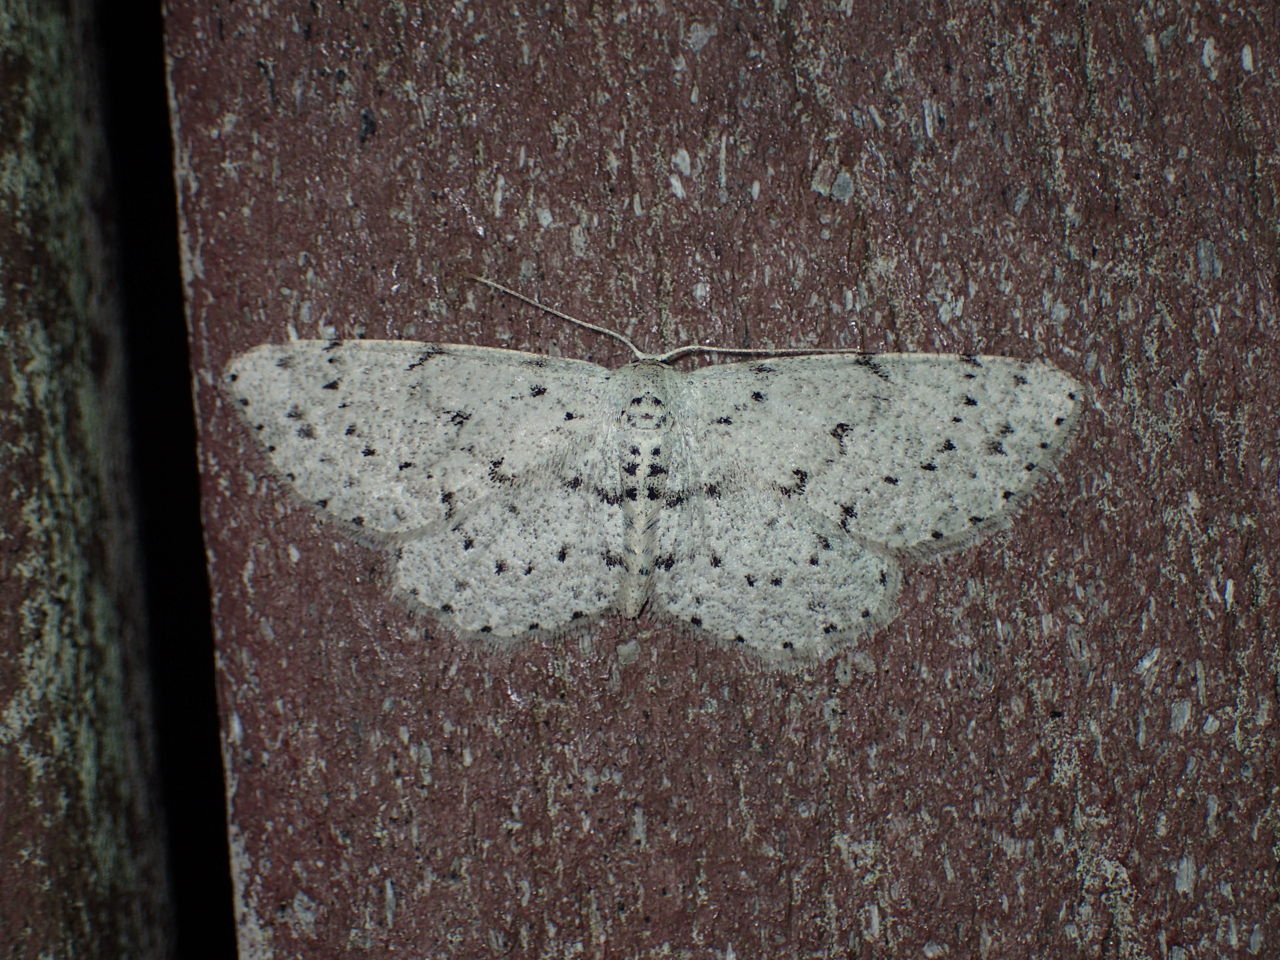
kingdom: Animalia
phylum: Arthropoda
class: Insecta
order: Lepidoptera
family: Geometridae
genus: Glena
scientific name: Glena cribrataria
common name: Dotted gray
